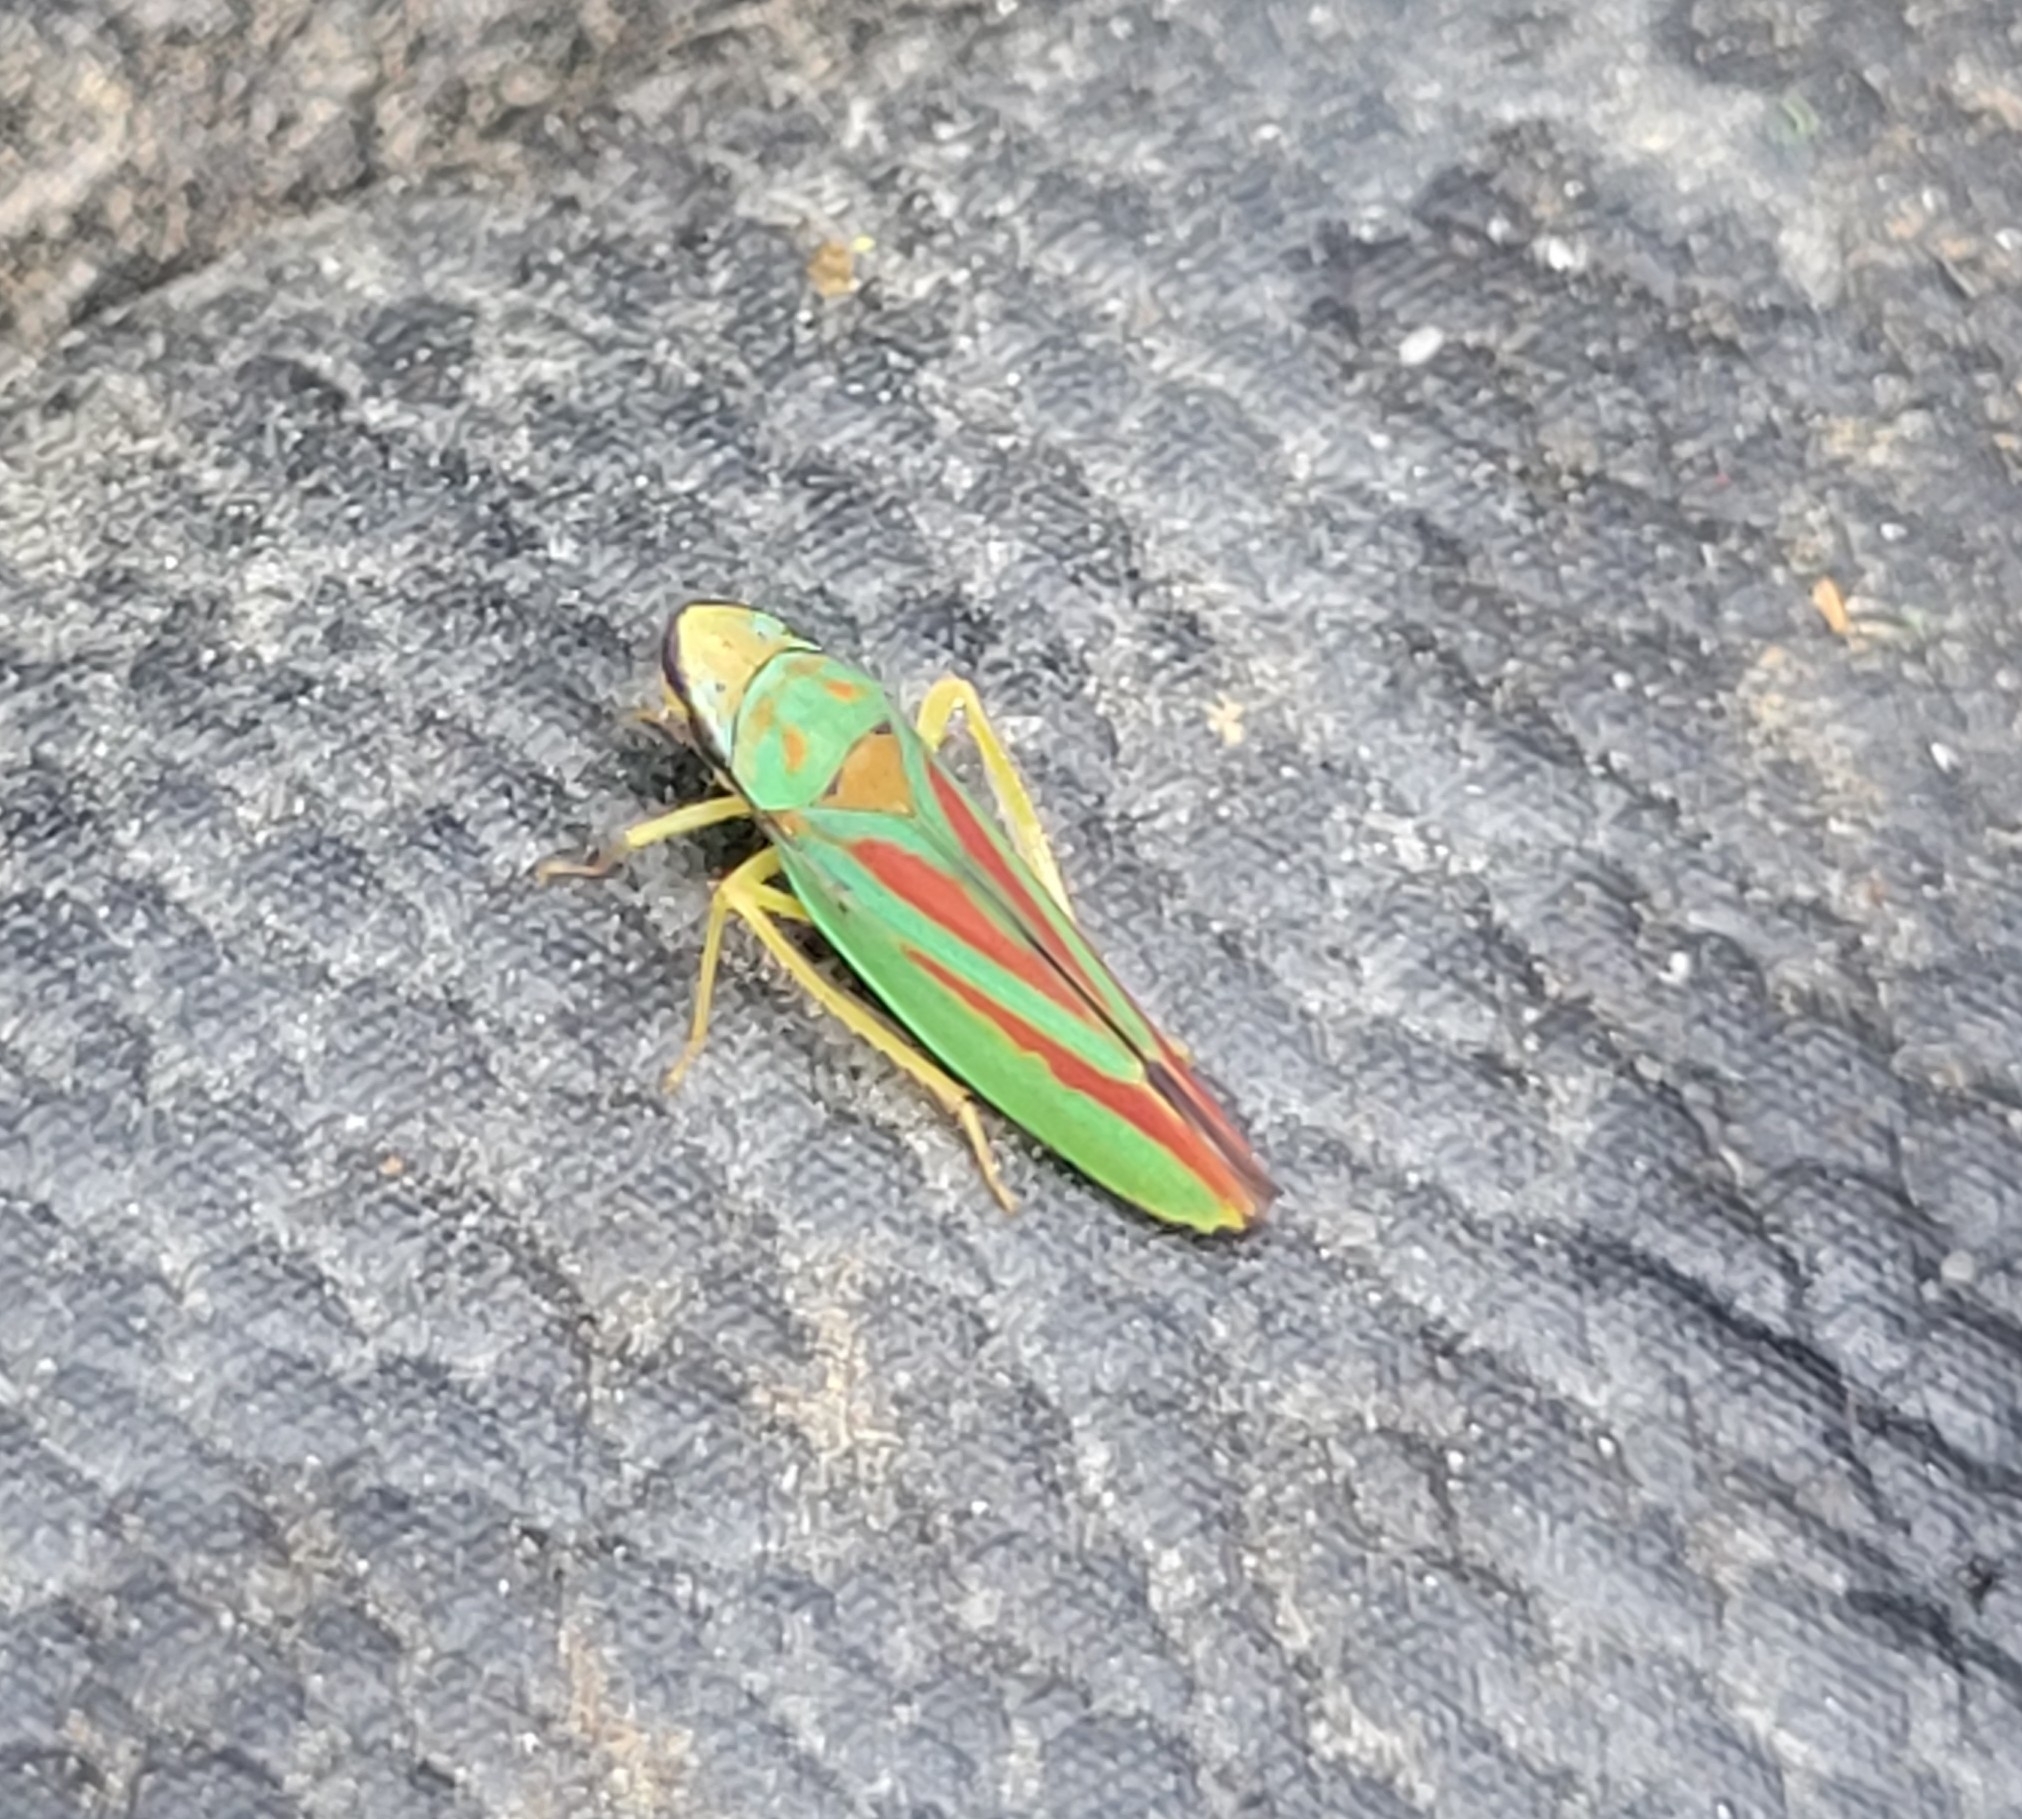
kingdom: Animalia
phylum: Arthropoda
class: Insecta
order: Hemiptera
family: Cicadellidae
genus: Graphocephala
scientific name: Graphocephala fennahi
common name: Rhododendron leafhopper
